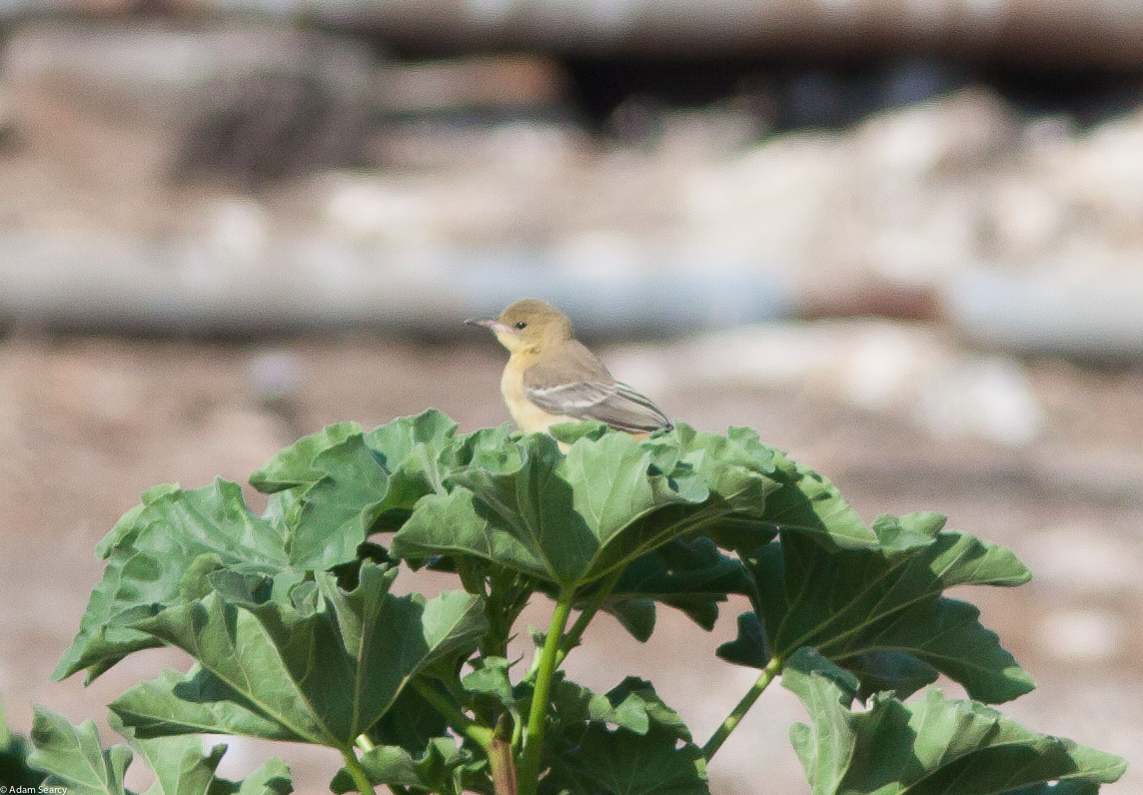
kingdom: Animalia
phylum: Chordata
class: Aves
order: Passeriformes
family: Icteridae
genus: Icterus
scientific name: Icterus cucullatus
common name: Hooded oriole
